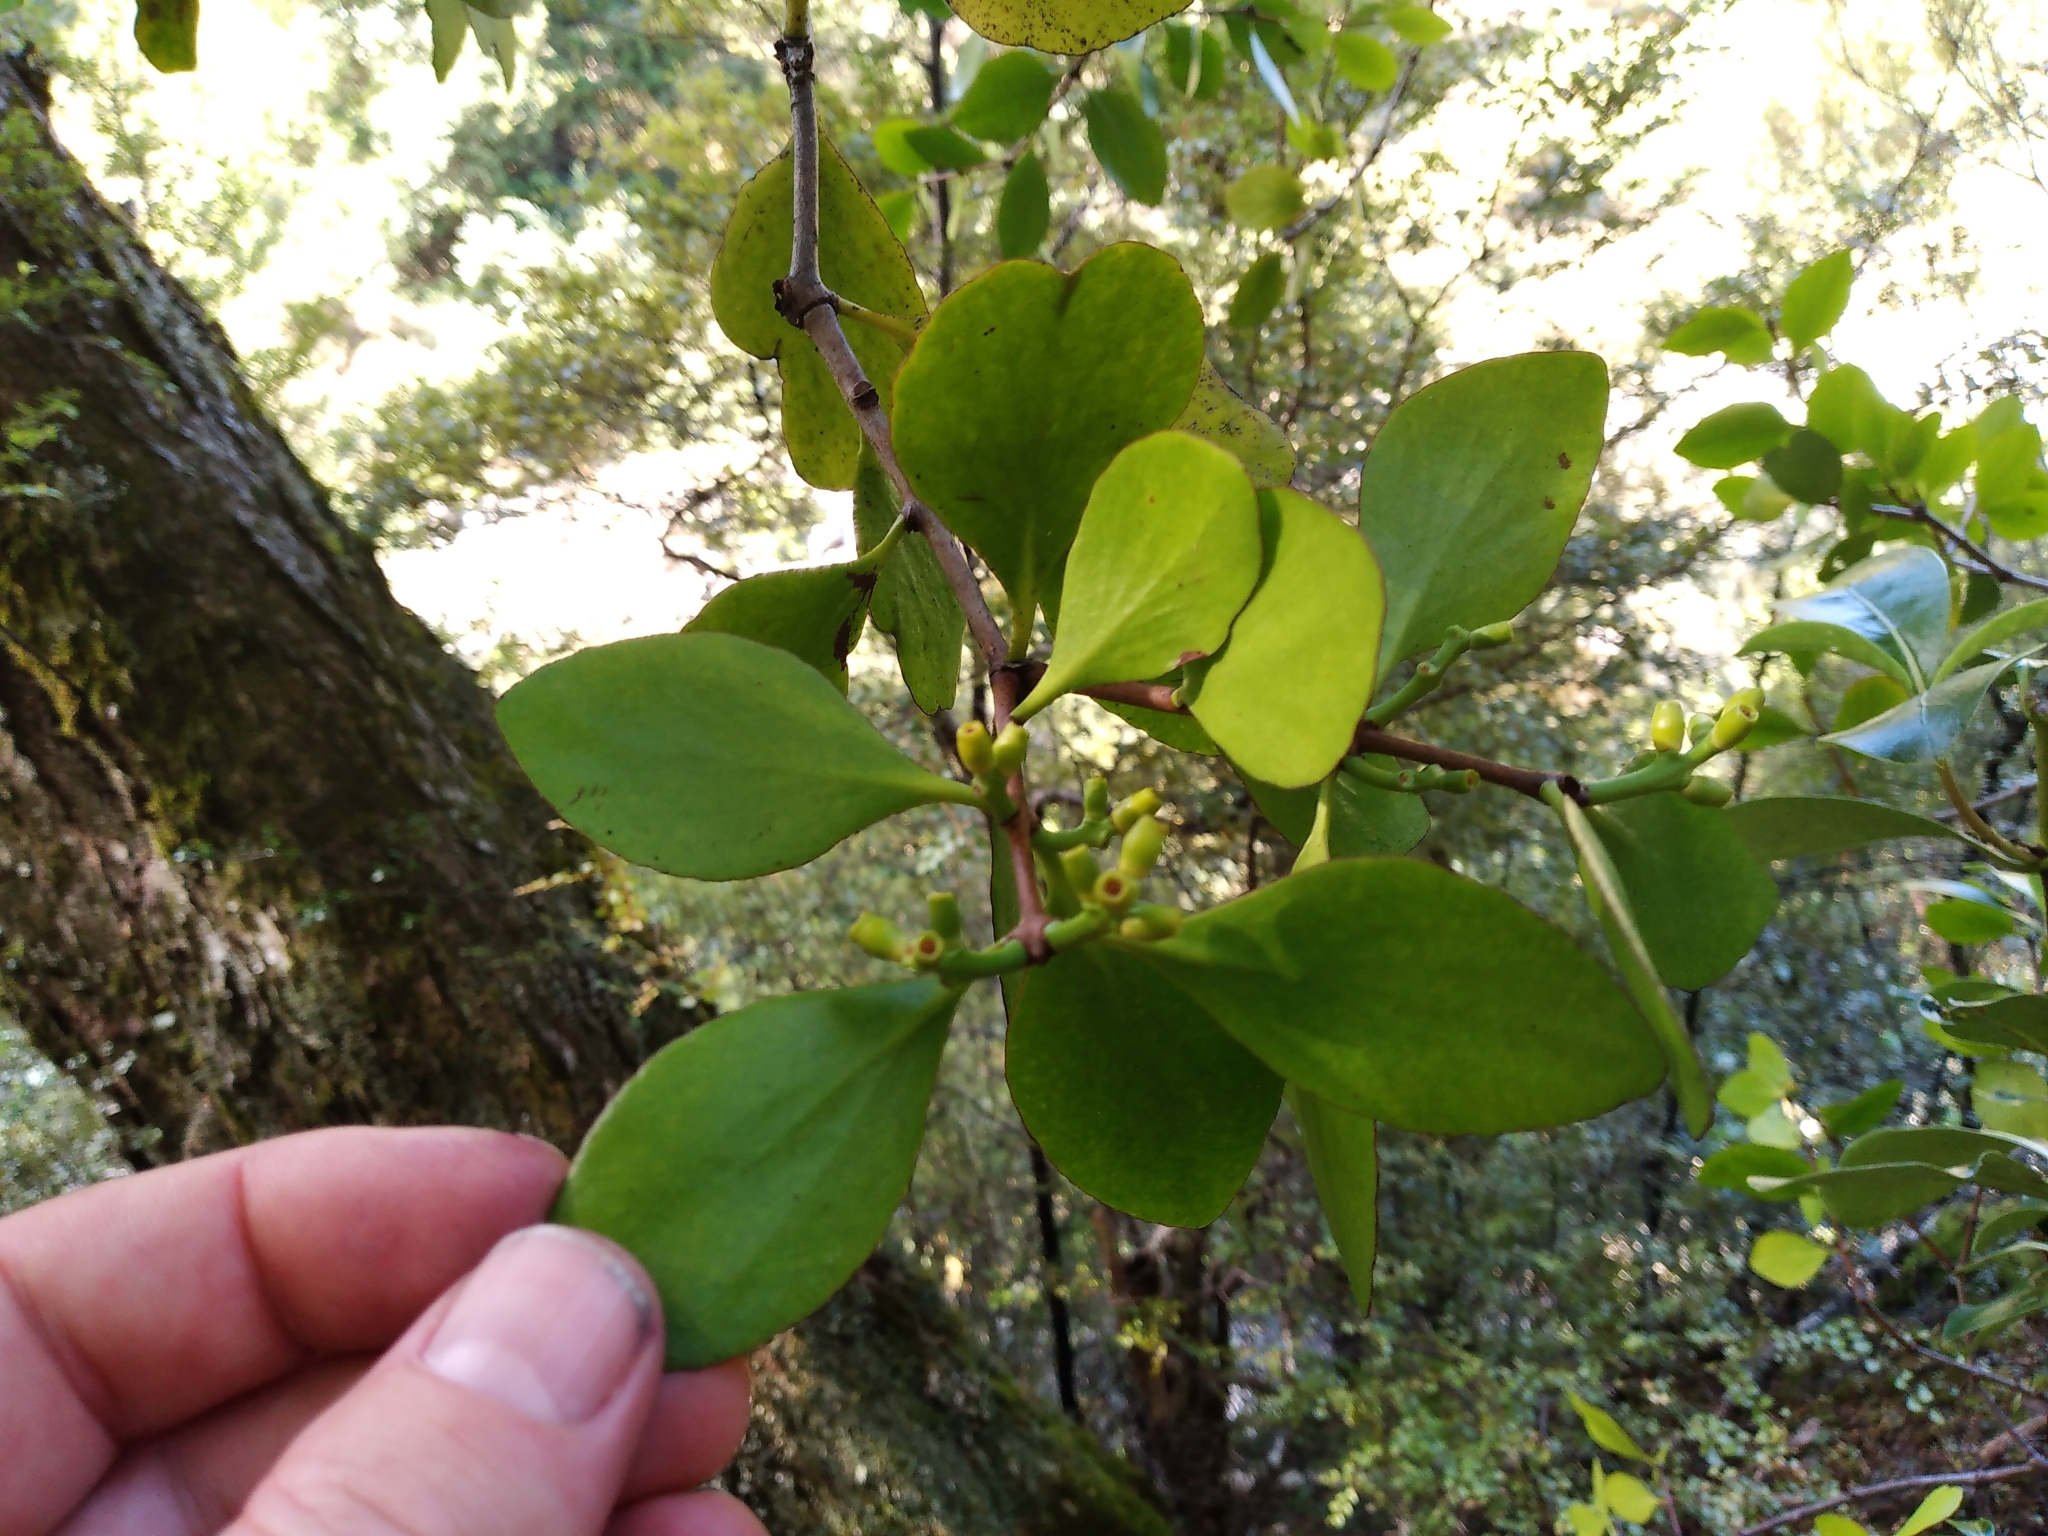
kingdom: Plantae
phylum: Tracheophyta
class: Magnoliopsida
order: Santalales
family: Loranthaceae
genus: Peraxilla
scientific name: Peraxilla colensoi
